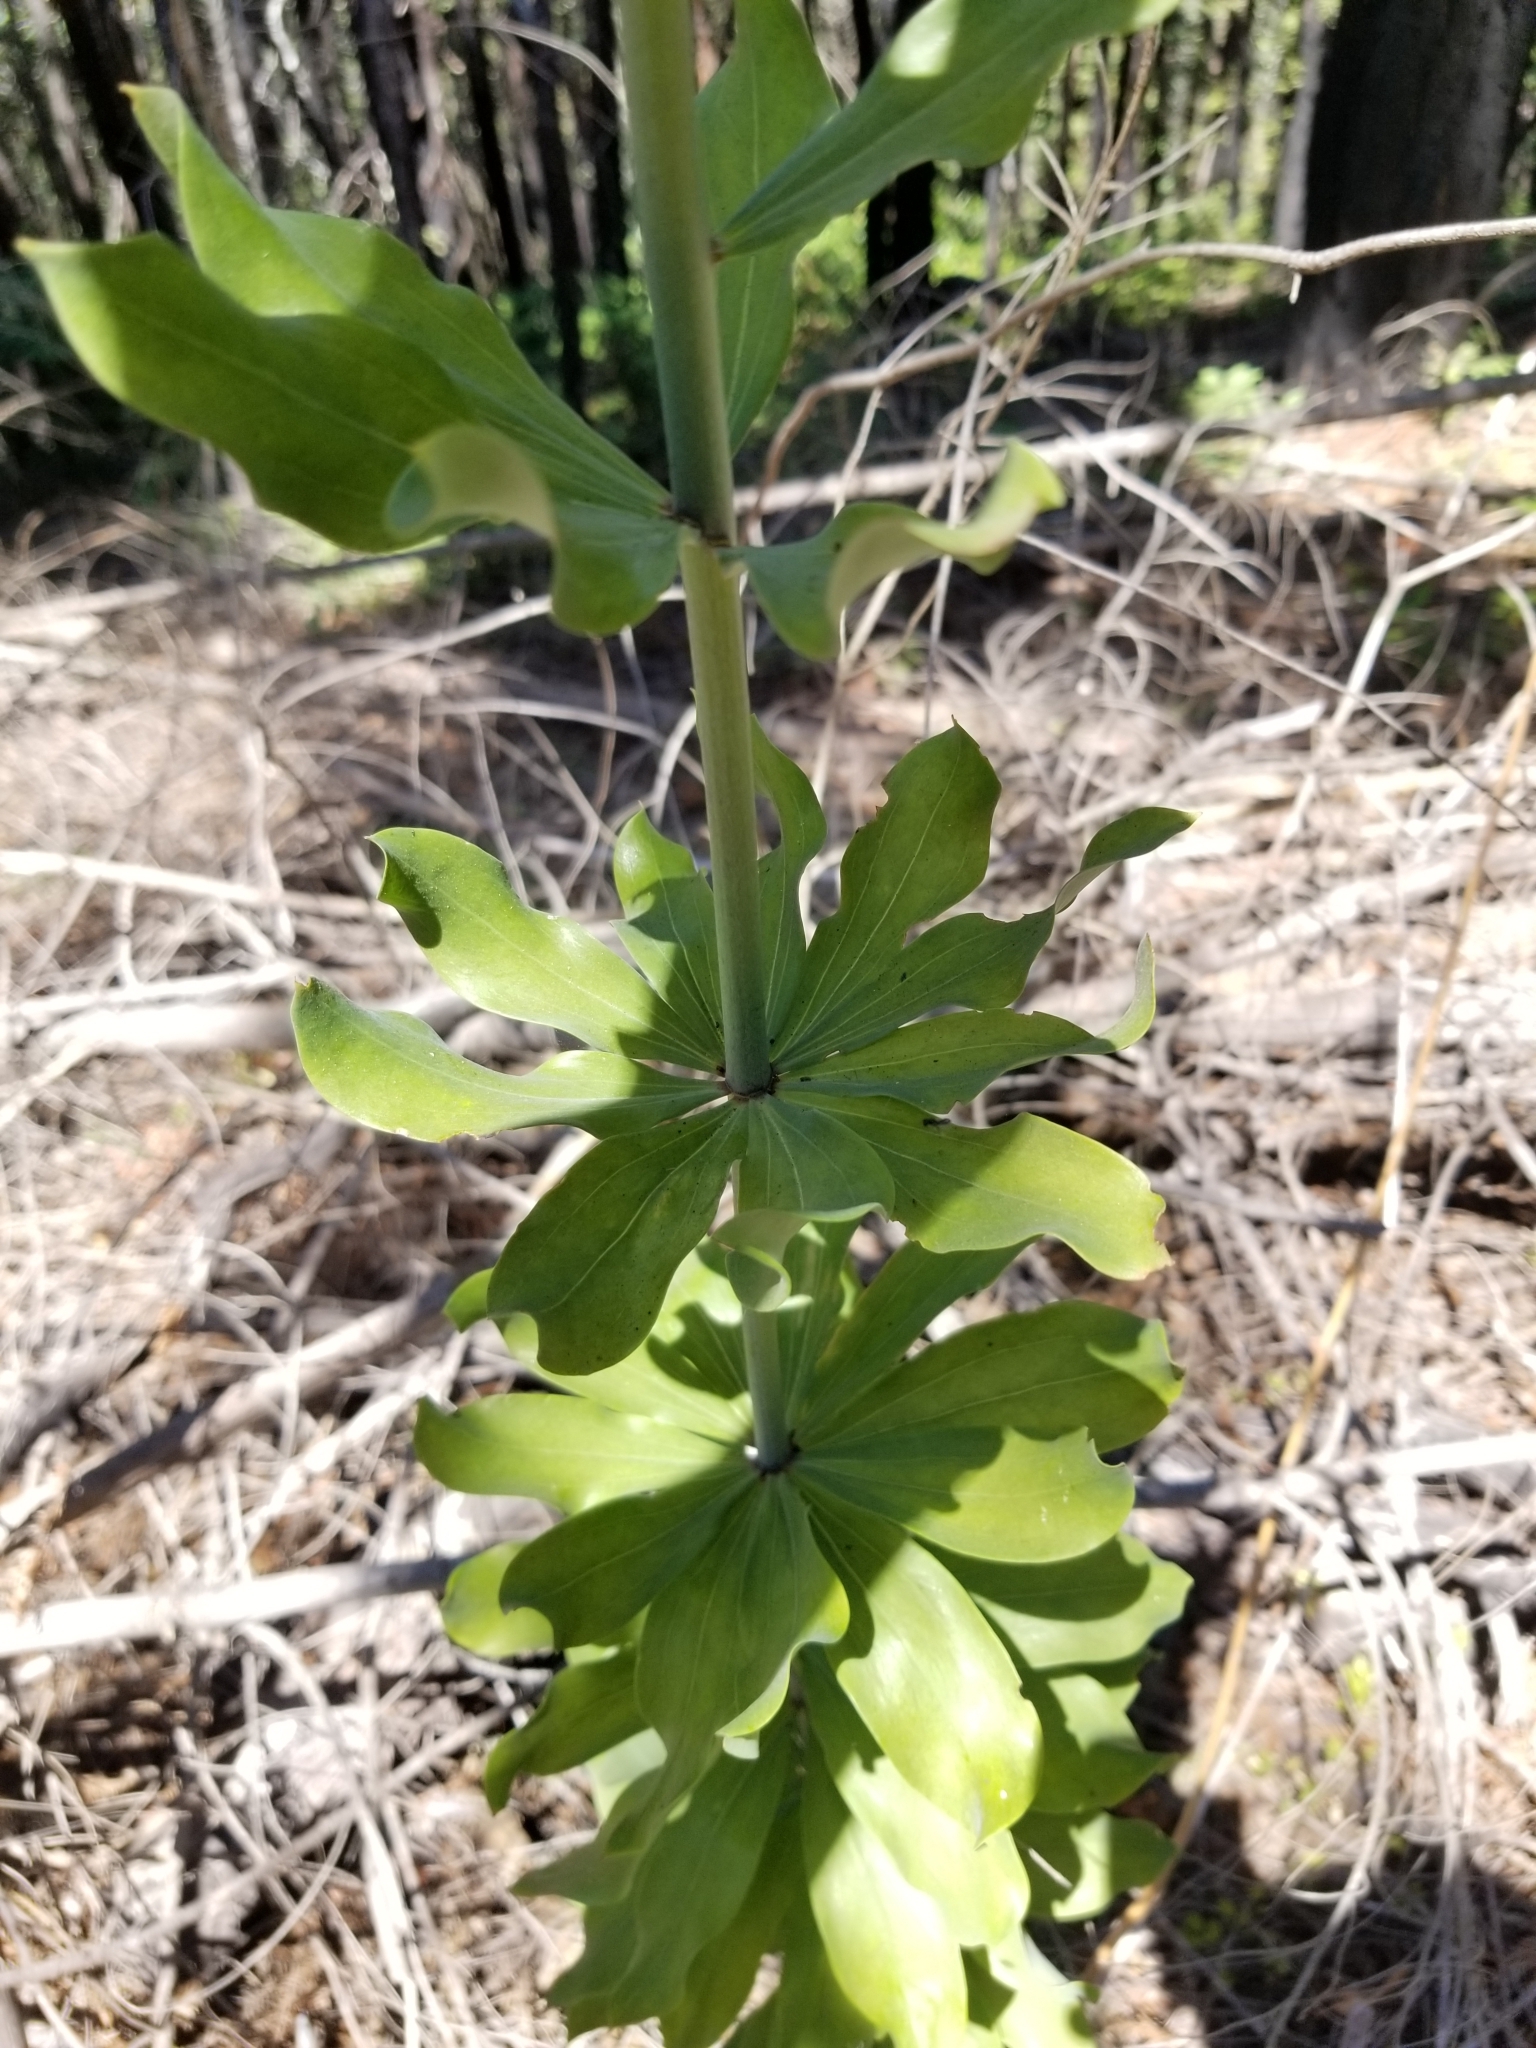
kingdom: Plantae
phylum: Tracheophyta
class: Liliopsida
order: Liliales
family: Liliaceae
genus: Lilium
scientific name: Lilium rubescens
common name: Chamise lily
